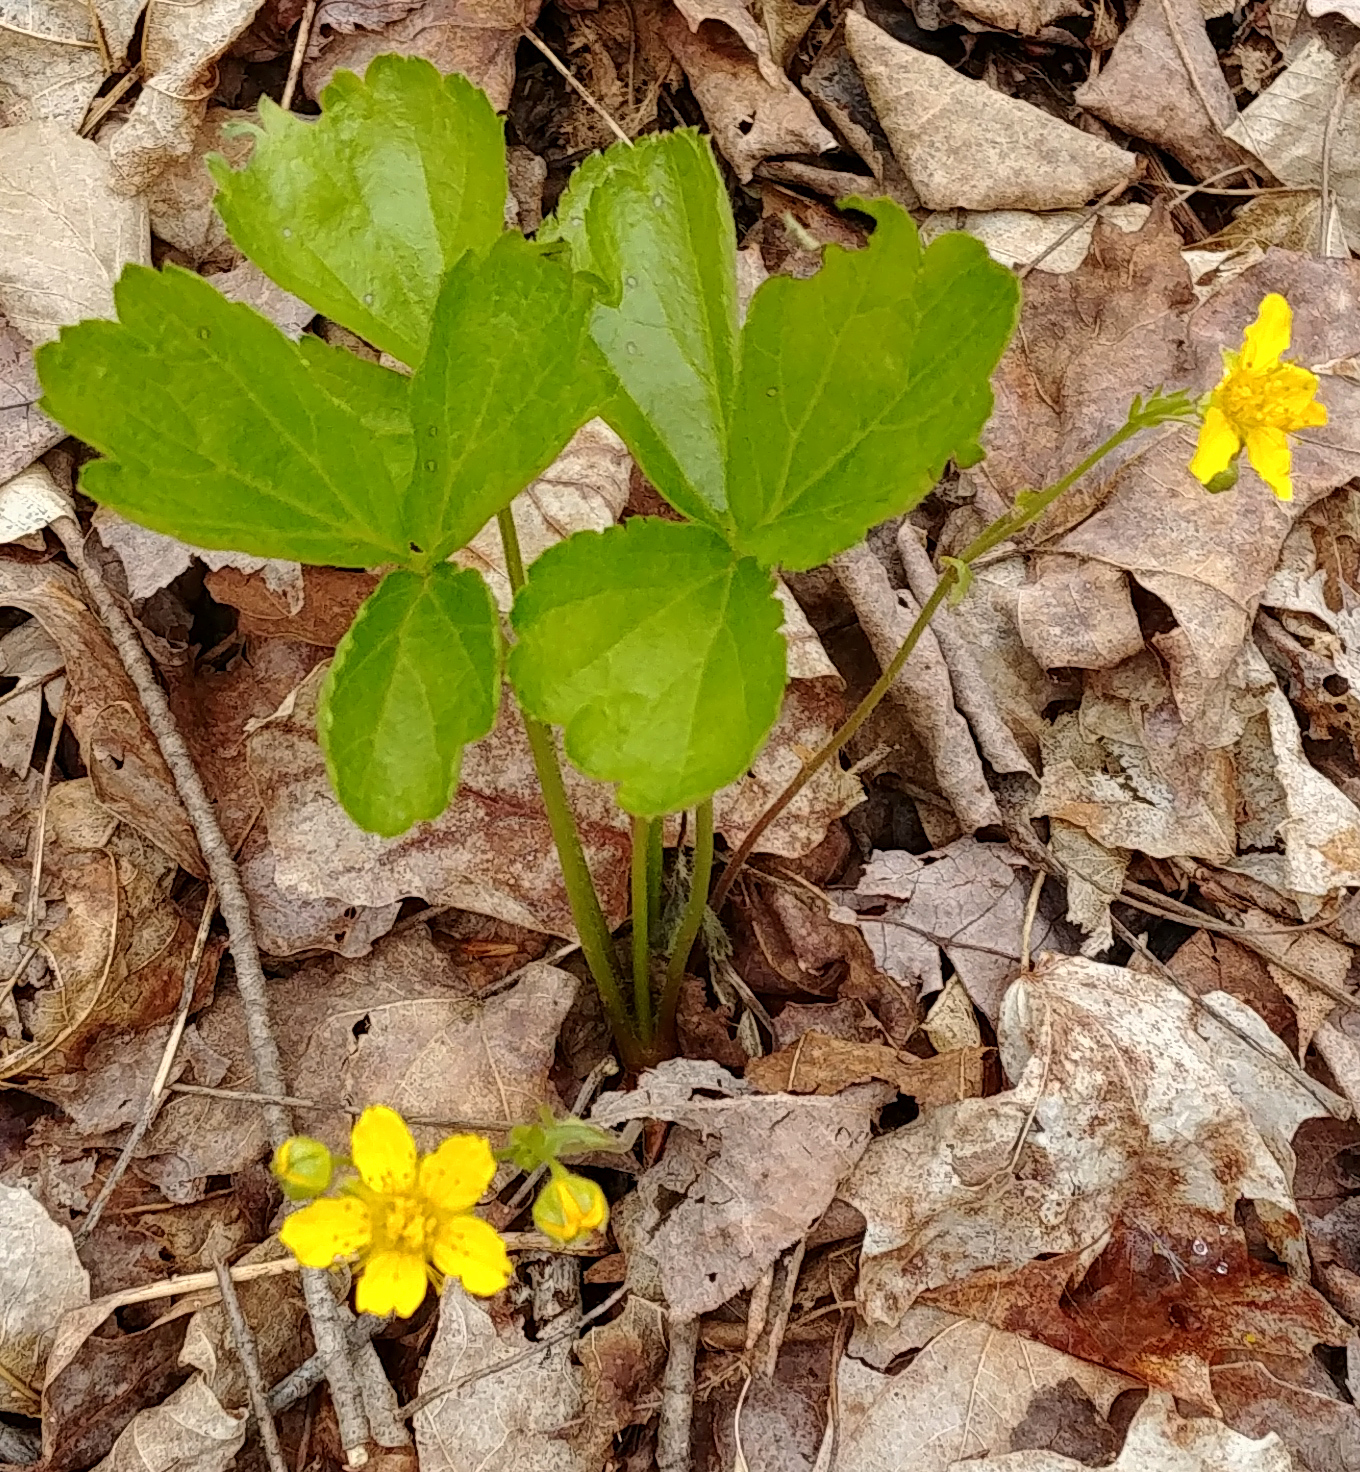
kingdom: Plantae
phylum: Tracheophyta
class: Magnoliopsida
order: Rosales
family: Rosaceae
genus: Geum
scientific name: Geum fragarioides
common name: Appalachian barren strawberry
